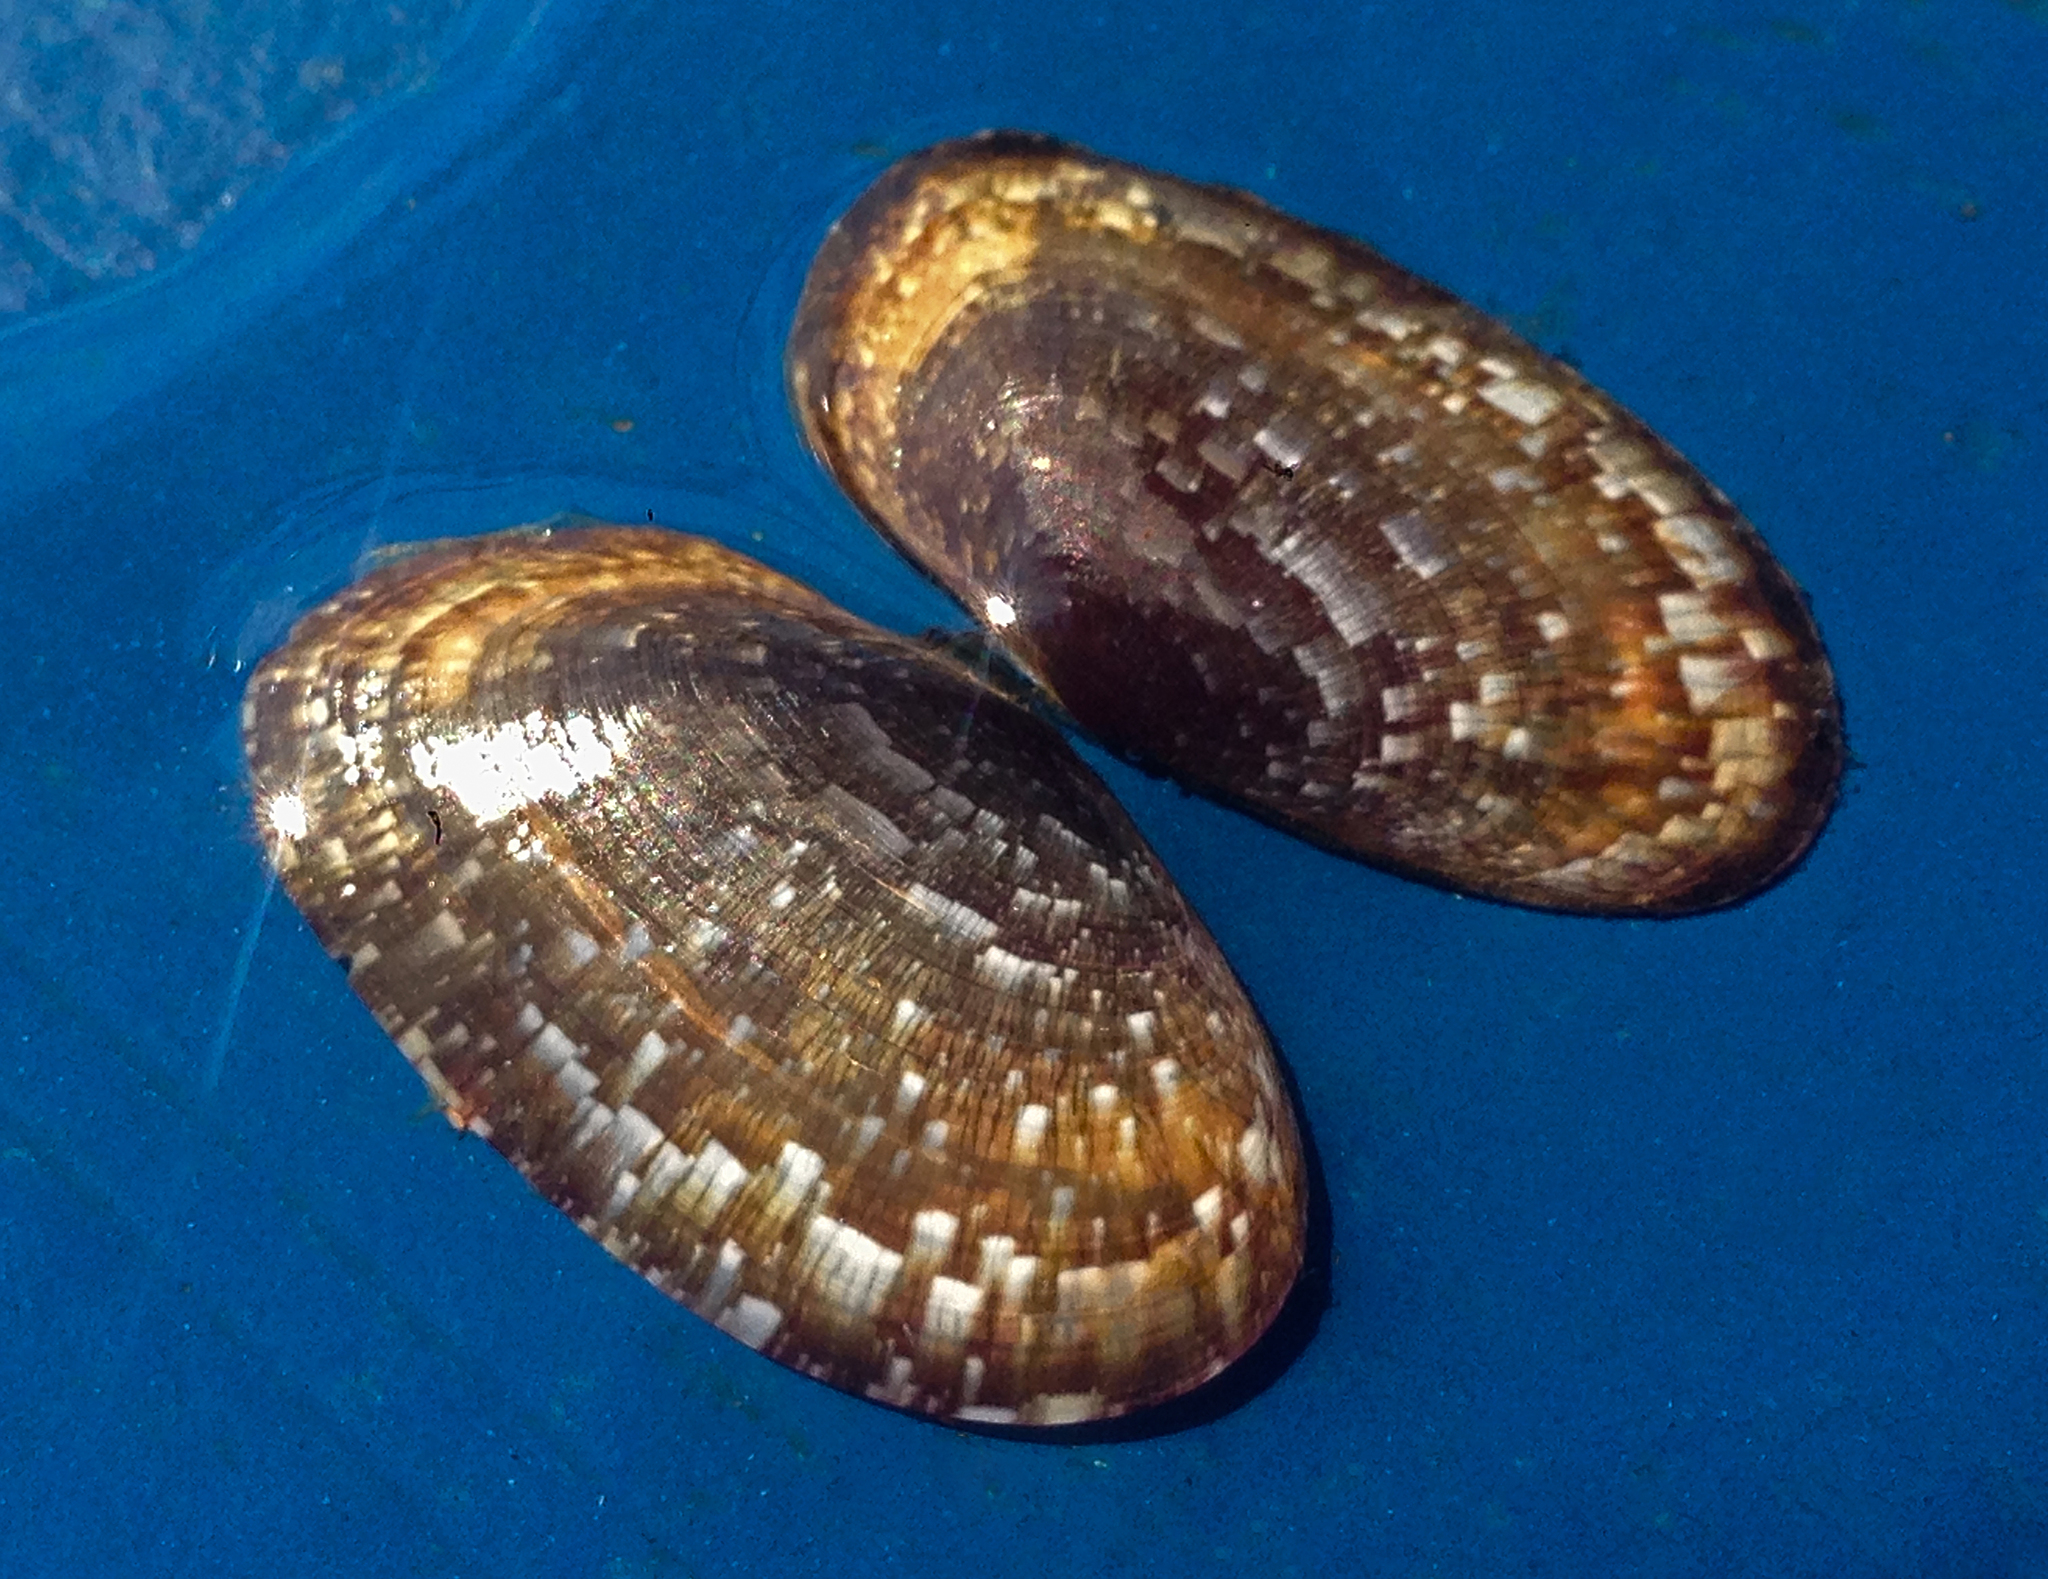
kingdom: Animalia
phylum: Mollusca
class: Bivalvia
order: Cardiida
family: Psammobiidae
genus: Gari
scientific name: Gari depressa
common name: Large sunset shell
